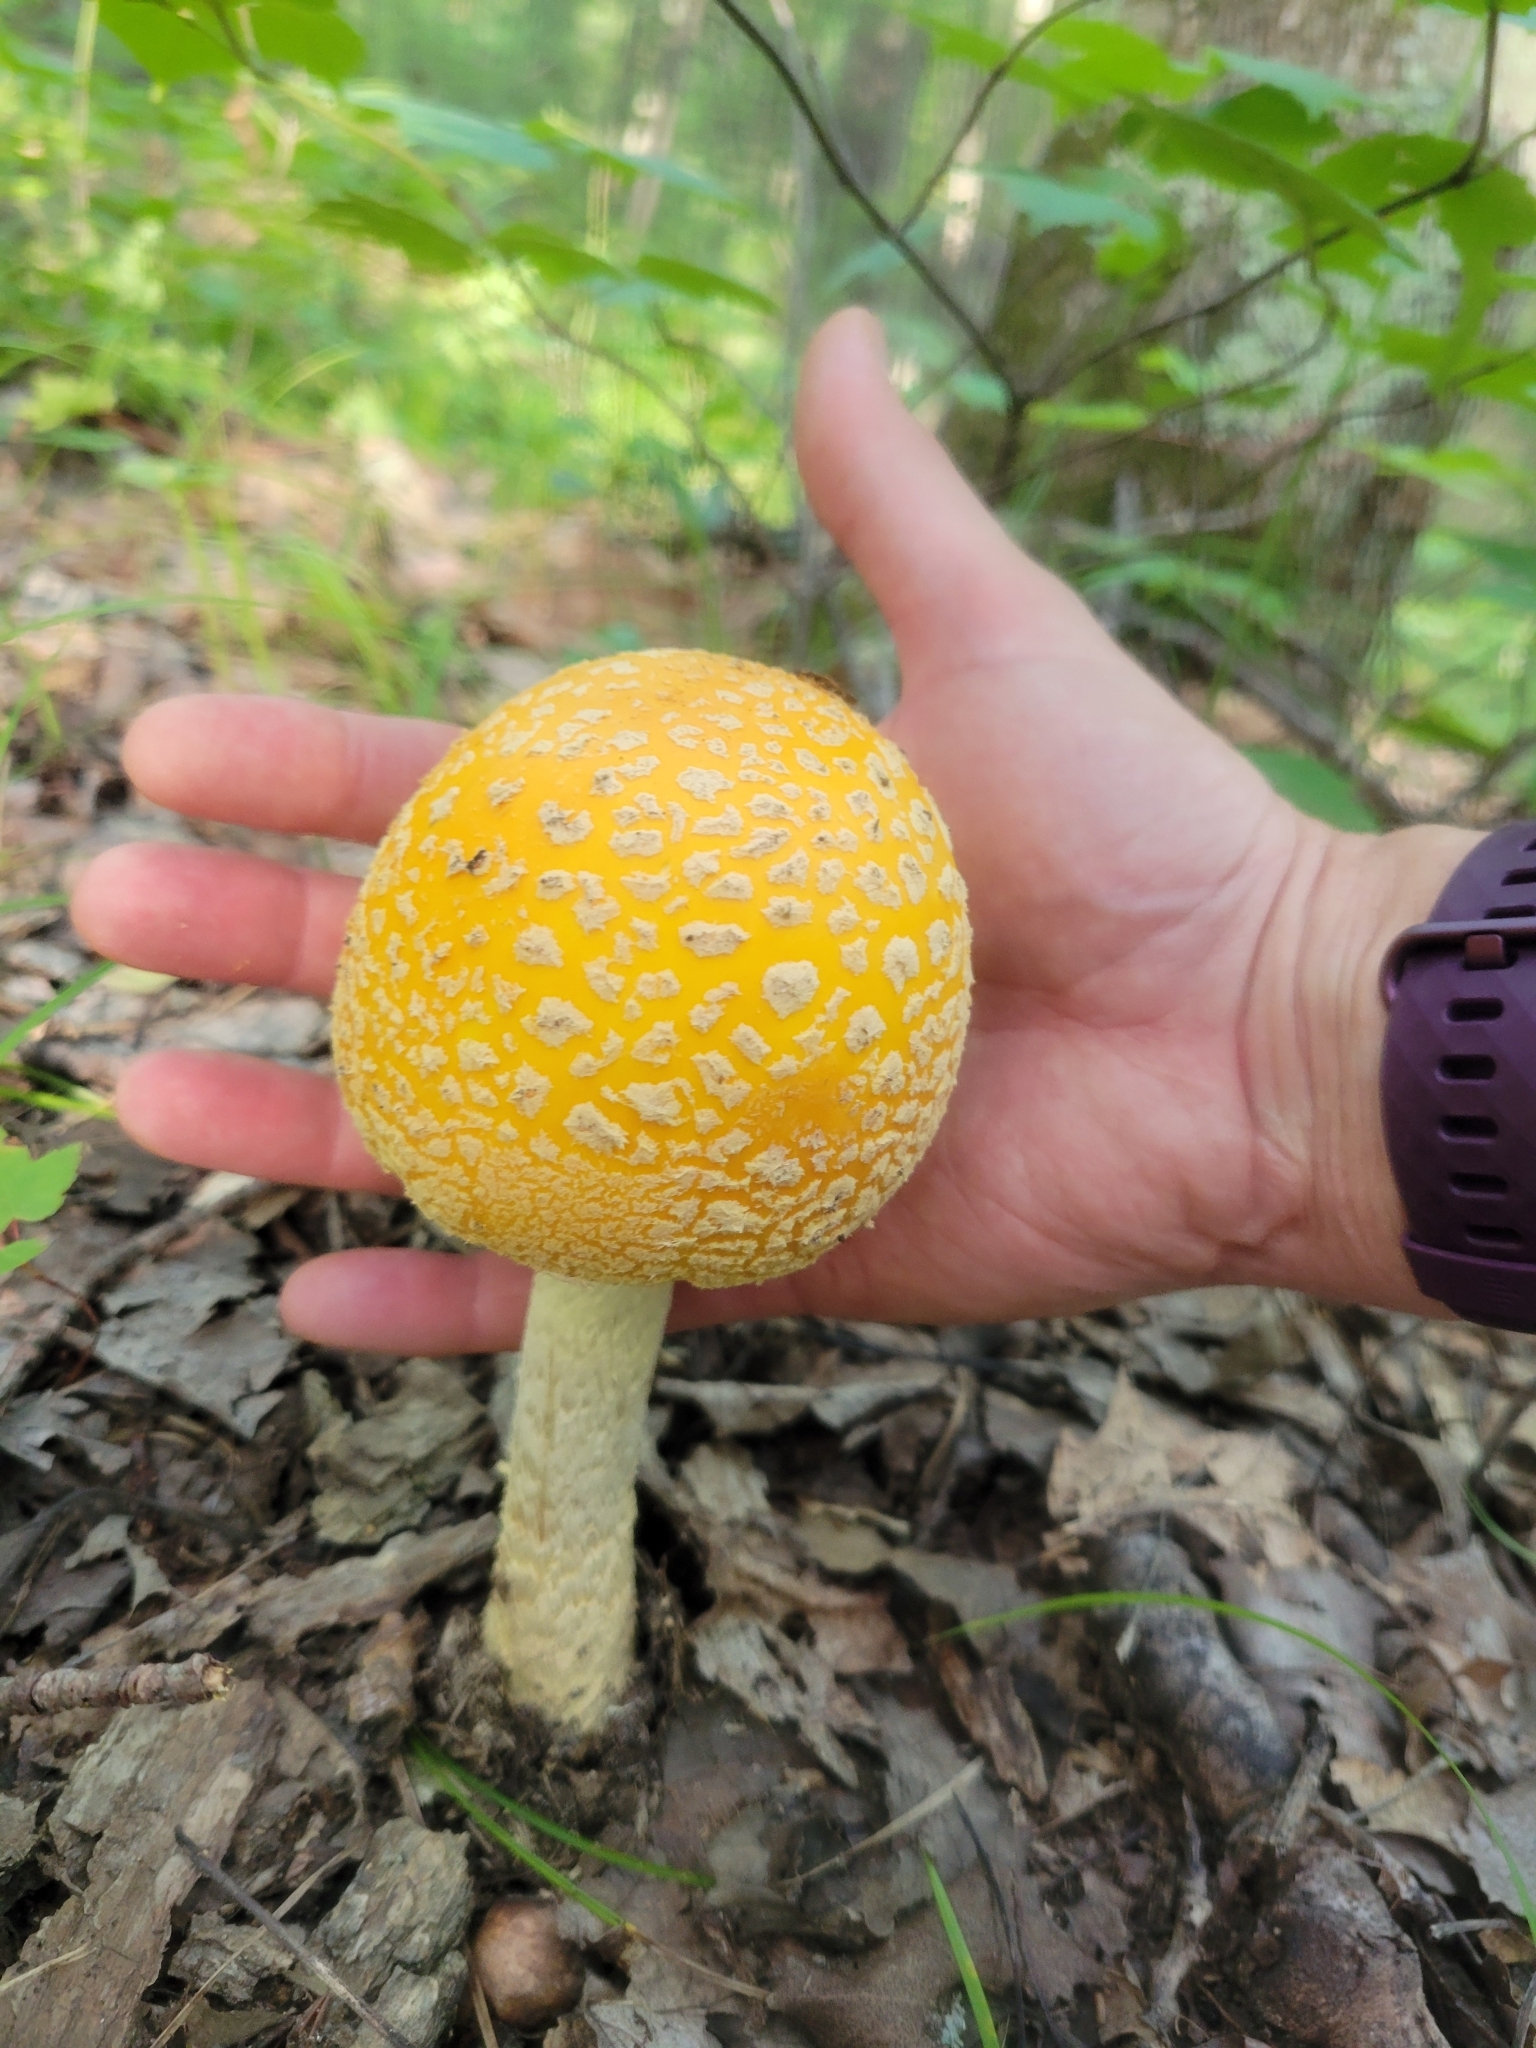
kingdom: Fungi
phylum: Basidiomycota
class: Agaricomycetes
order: Agaricales
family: Amanitaceae
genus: Amanita
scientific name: Amanita muscaria
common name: Fly agaric
